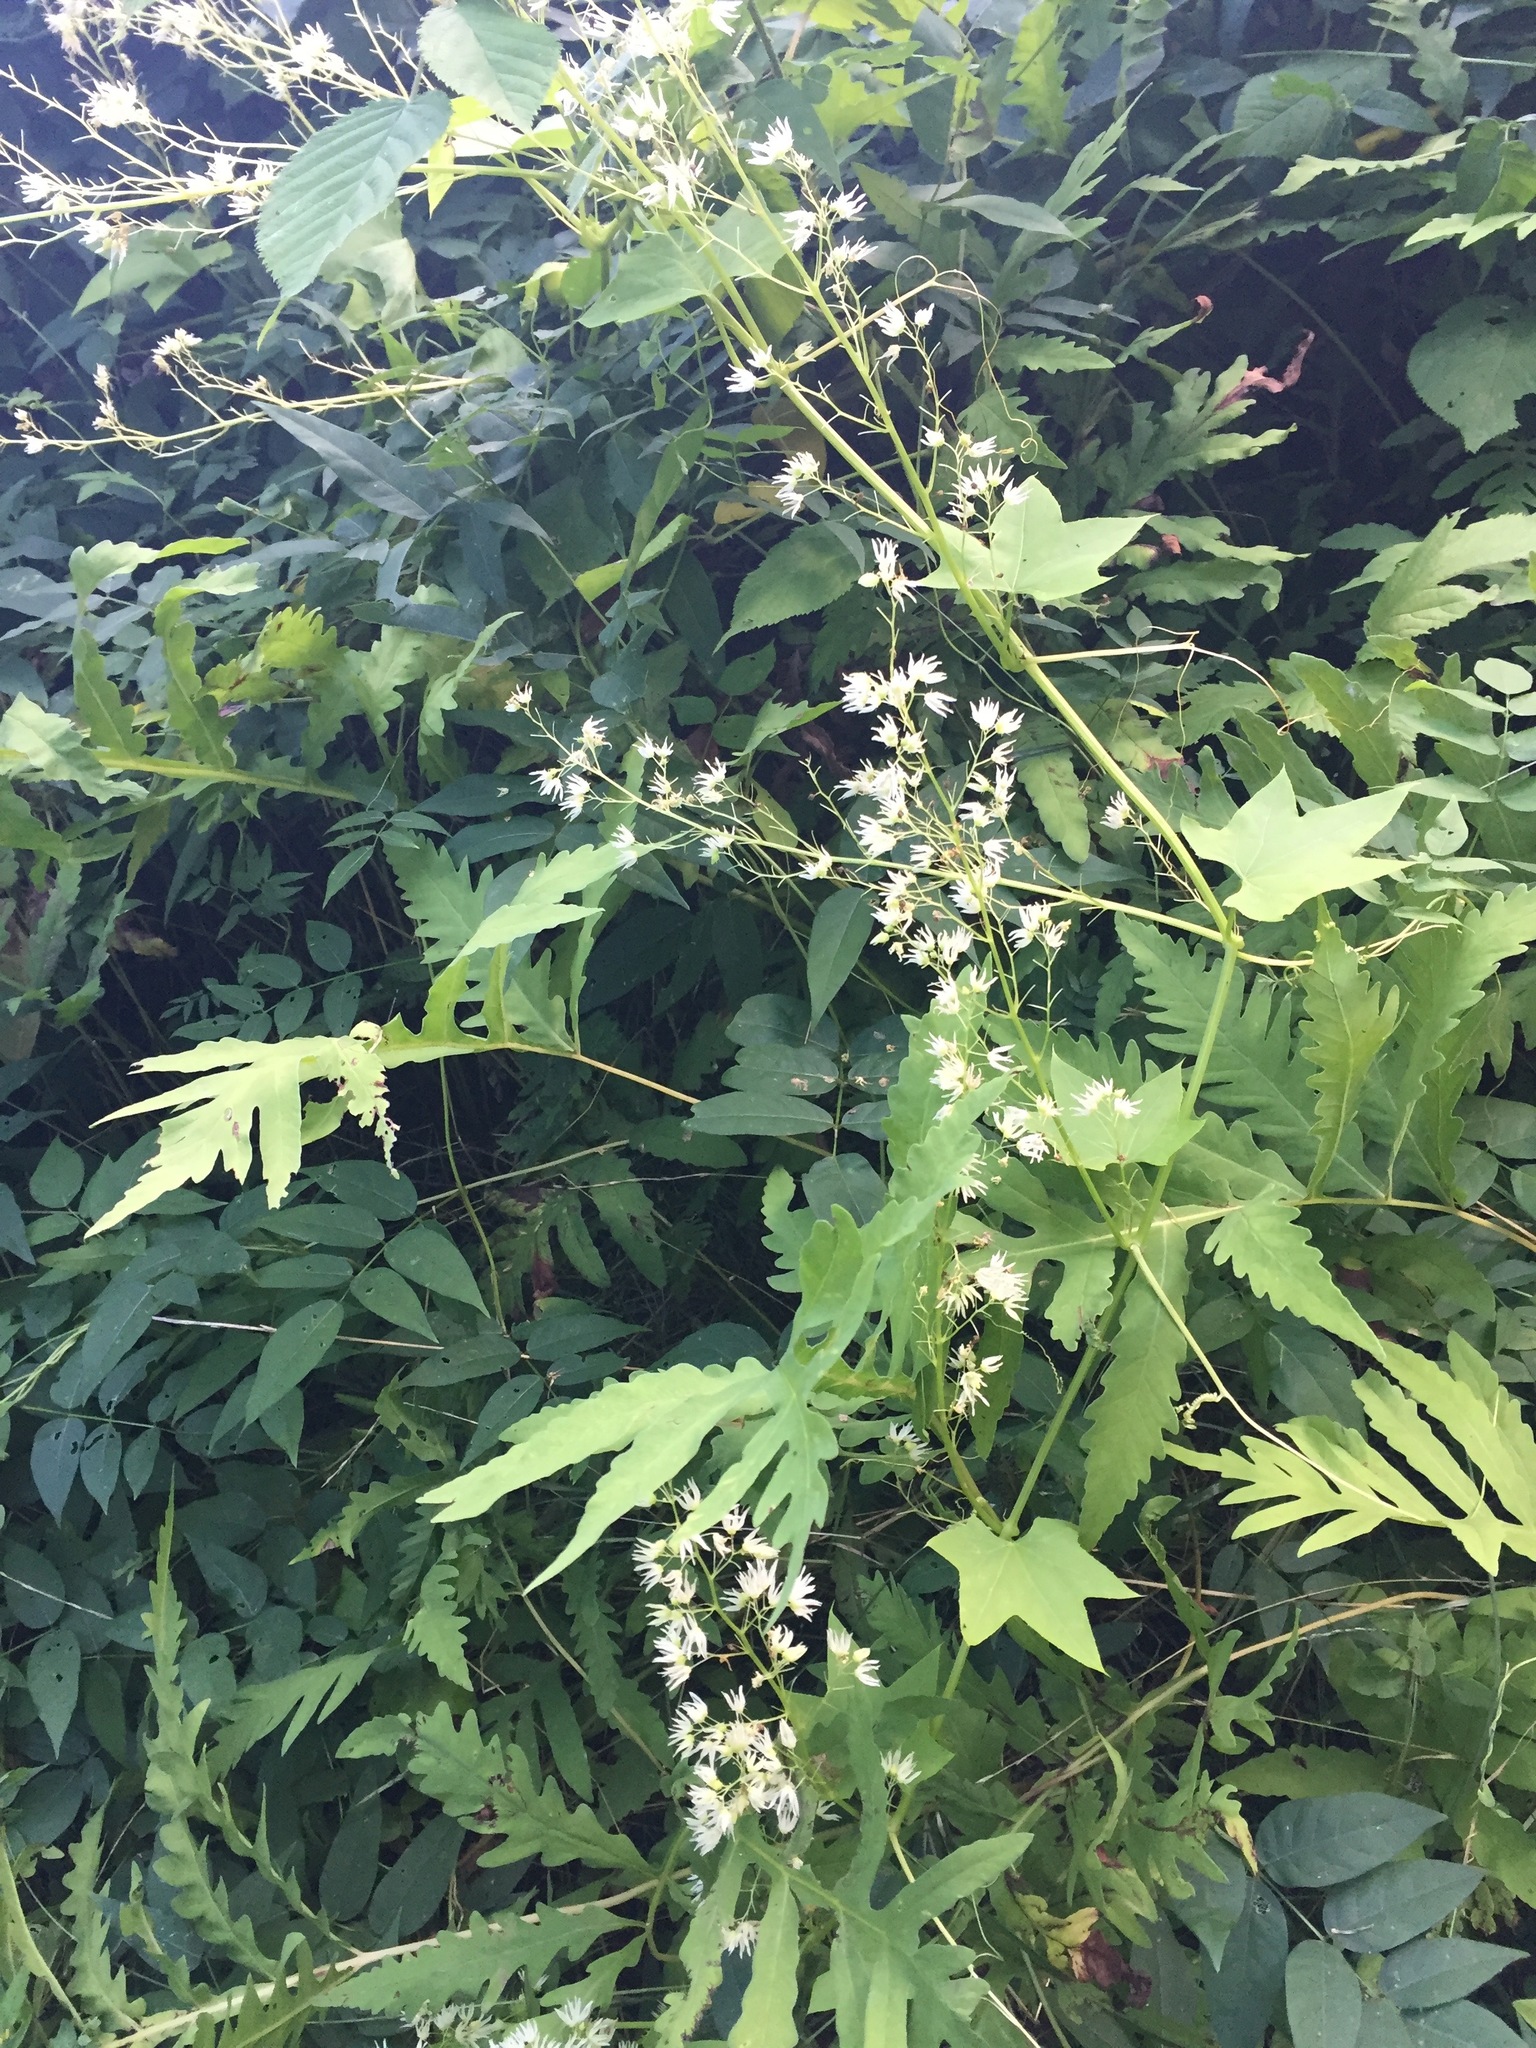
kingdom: Plantae
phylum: Tracheophyta
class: Magnoliopsida
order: Cucurbitales
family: Cucurbitaceae
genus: Echinocystis
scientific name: Echinocystis lobata
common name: Wild cucumber
